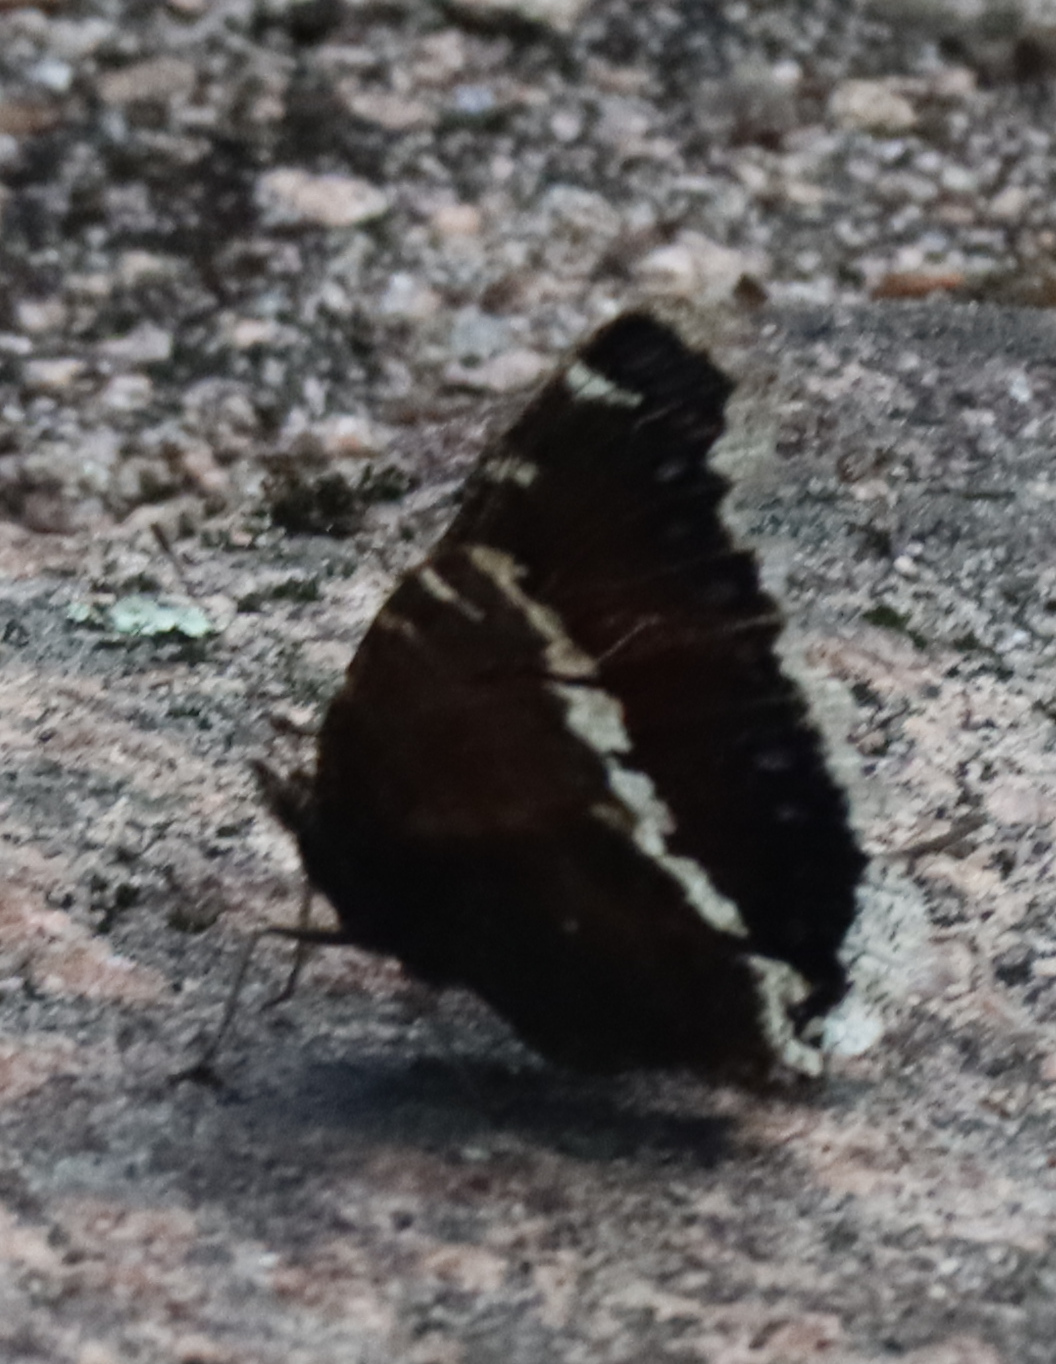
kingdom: Animalia
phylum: Arthropoda
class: Insecta
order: Lepidoptera
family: Nymphalidae
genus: Nymphalis
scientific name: Nymphalis antiopa
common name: Camberwell beauty
